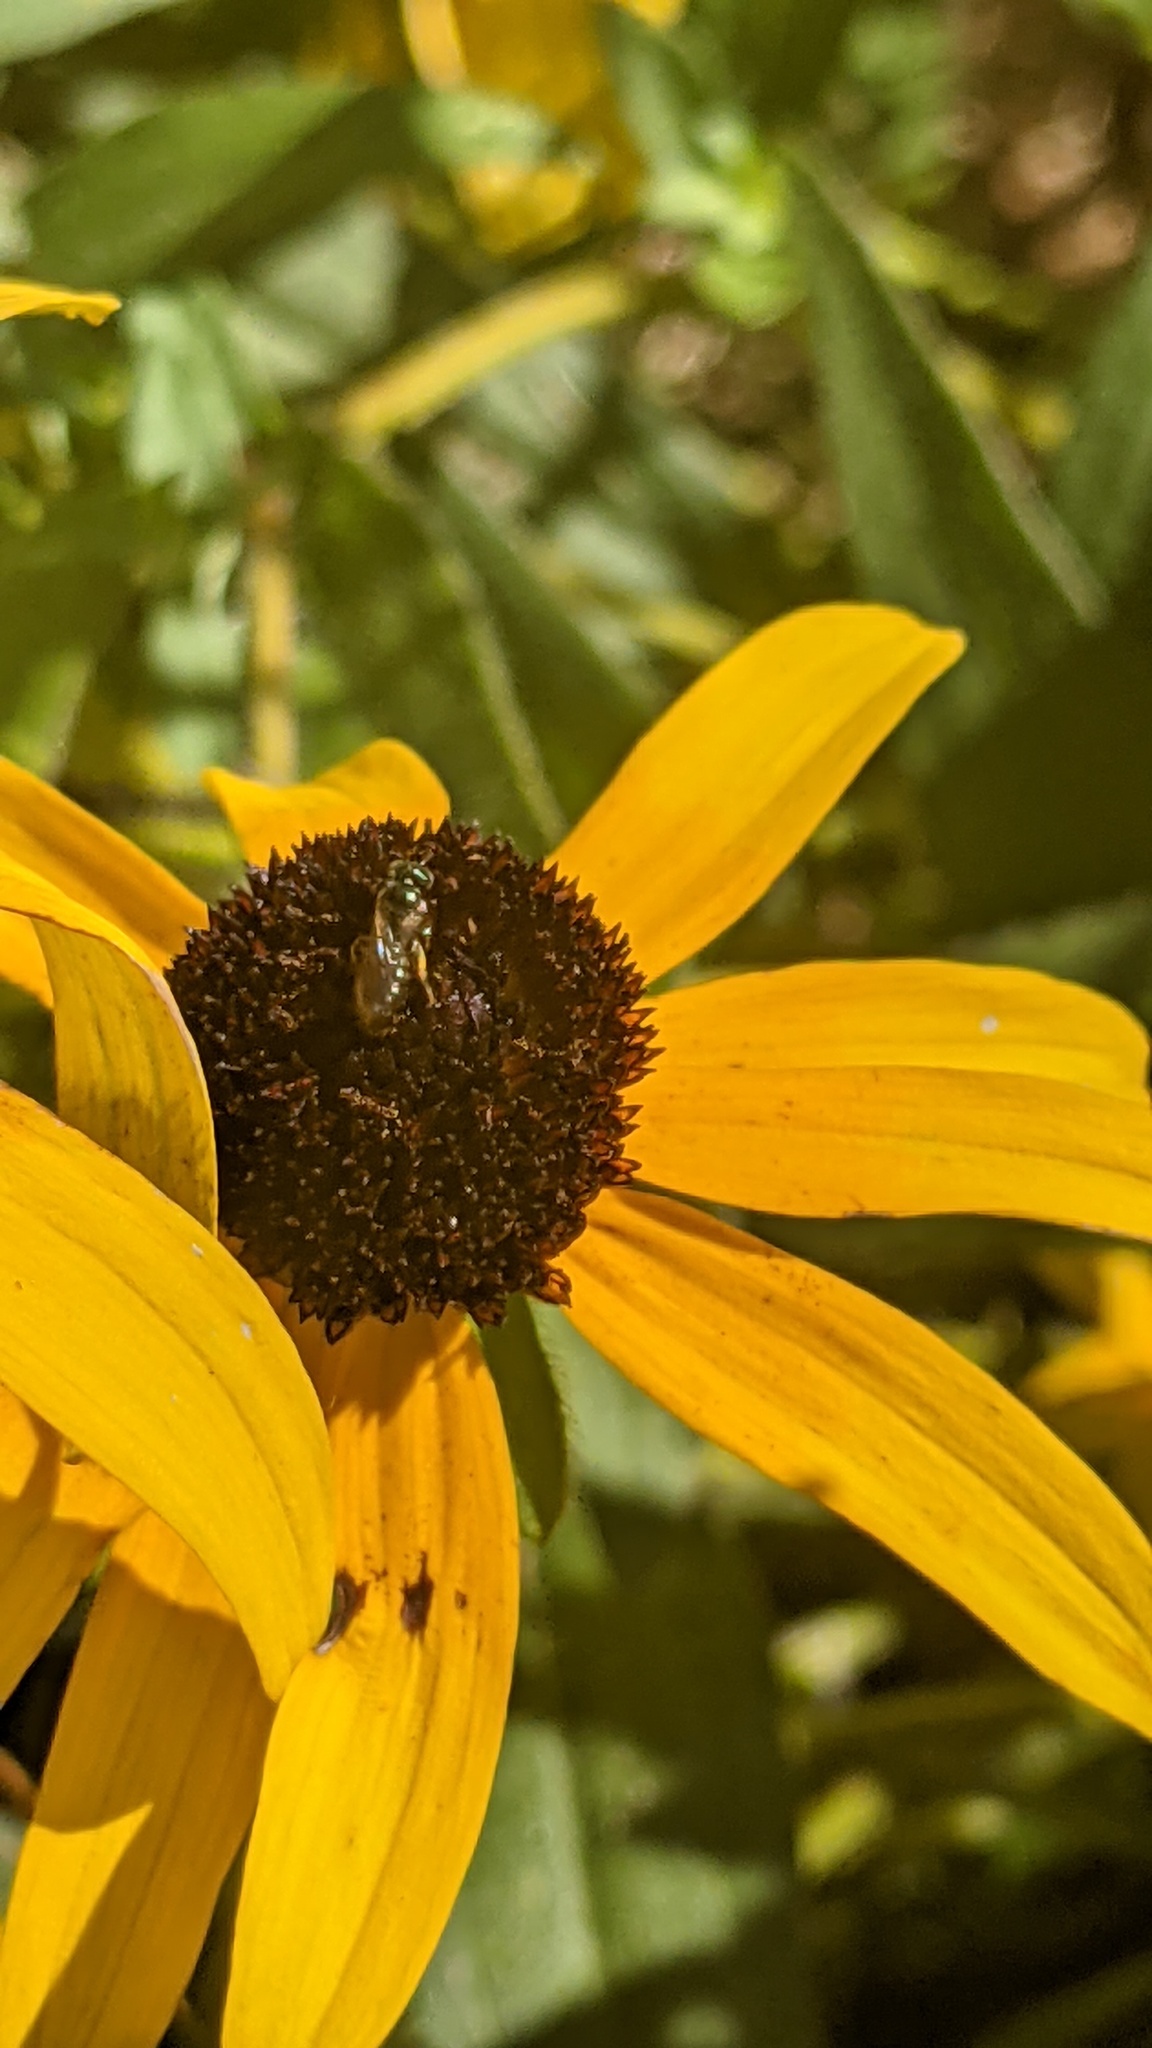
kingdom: Animalia
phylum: Arthropoda
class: Insecta
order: Hymenoptera
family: Apidae
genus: Zadontomerus
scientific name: Zadontomerus
